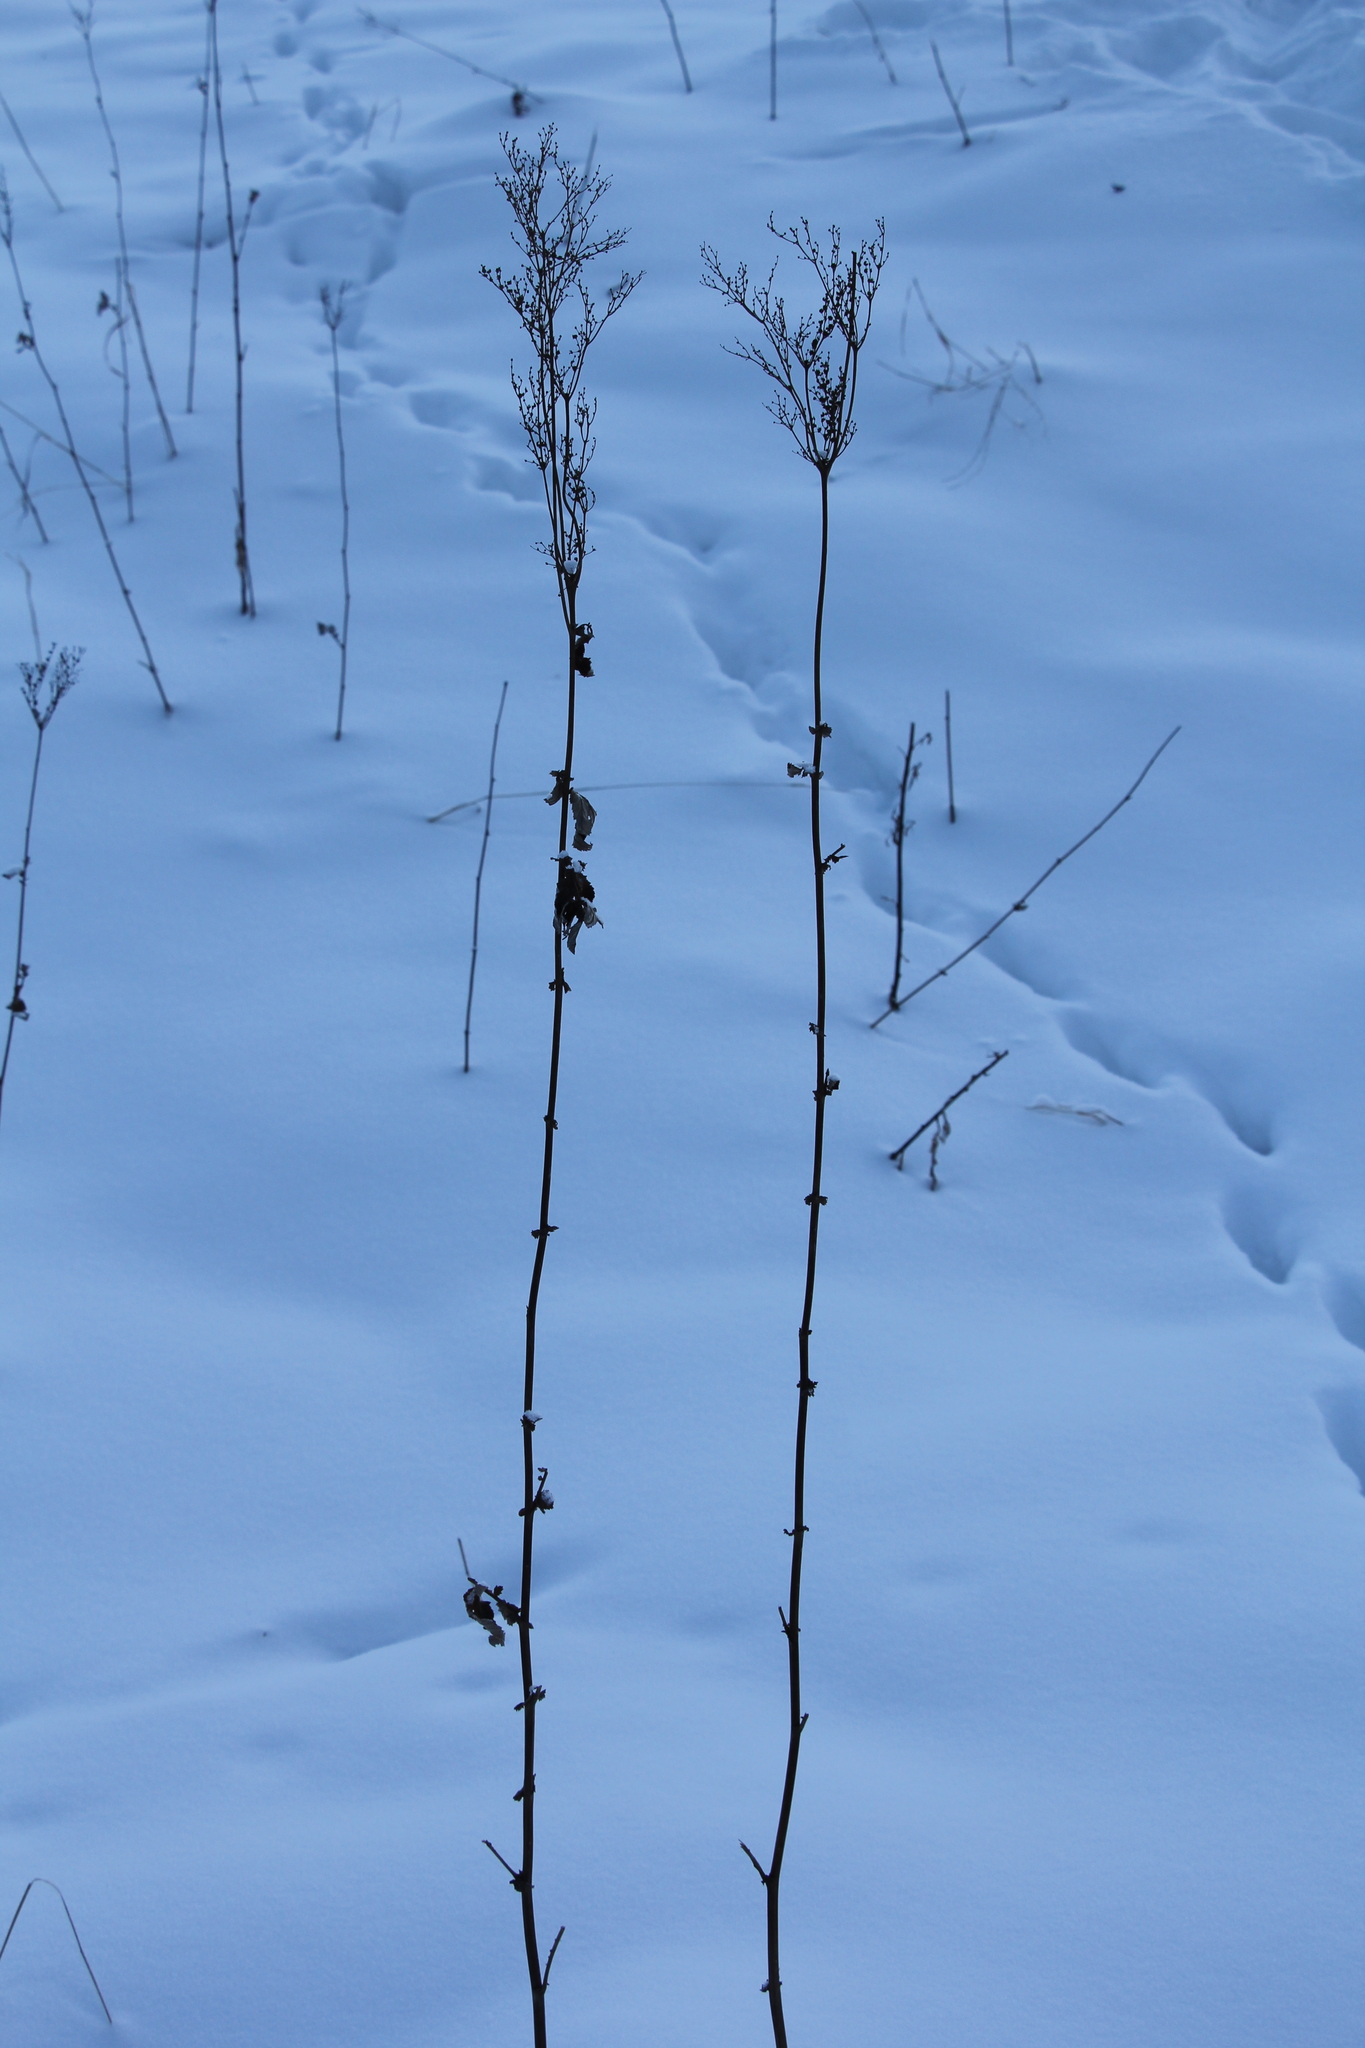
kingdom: Plantae
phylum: Tracheophyta
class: Magnoliopsida
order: Rosales
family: Rosaceae
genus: Filipendula
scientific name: Filipendula ulmaria
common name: Meadowsweet
